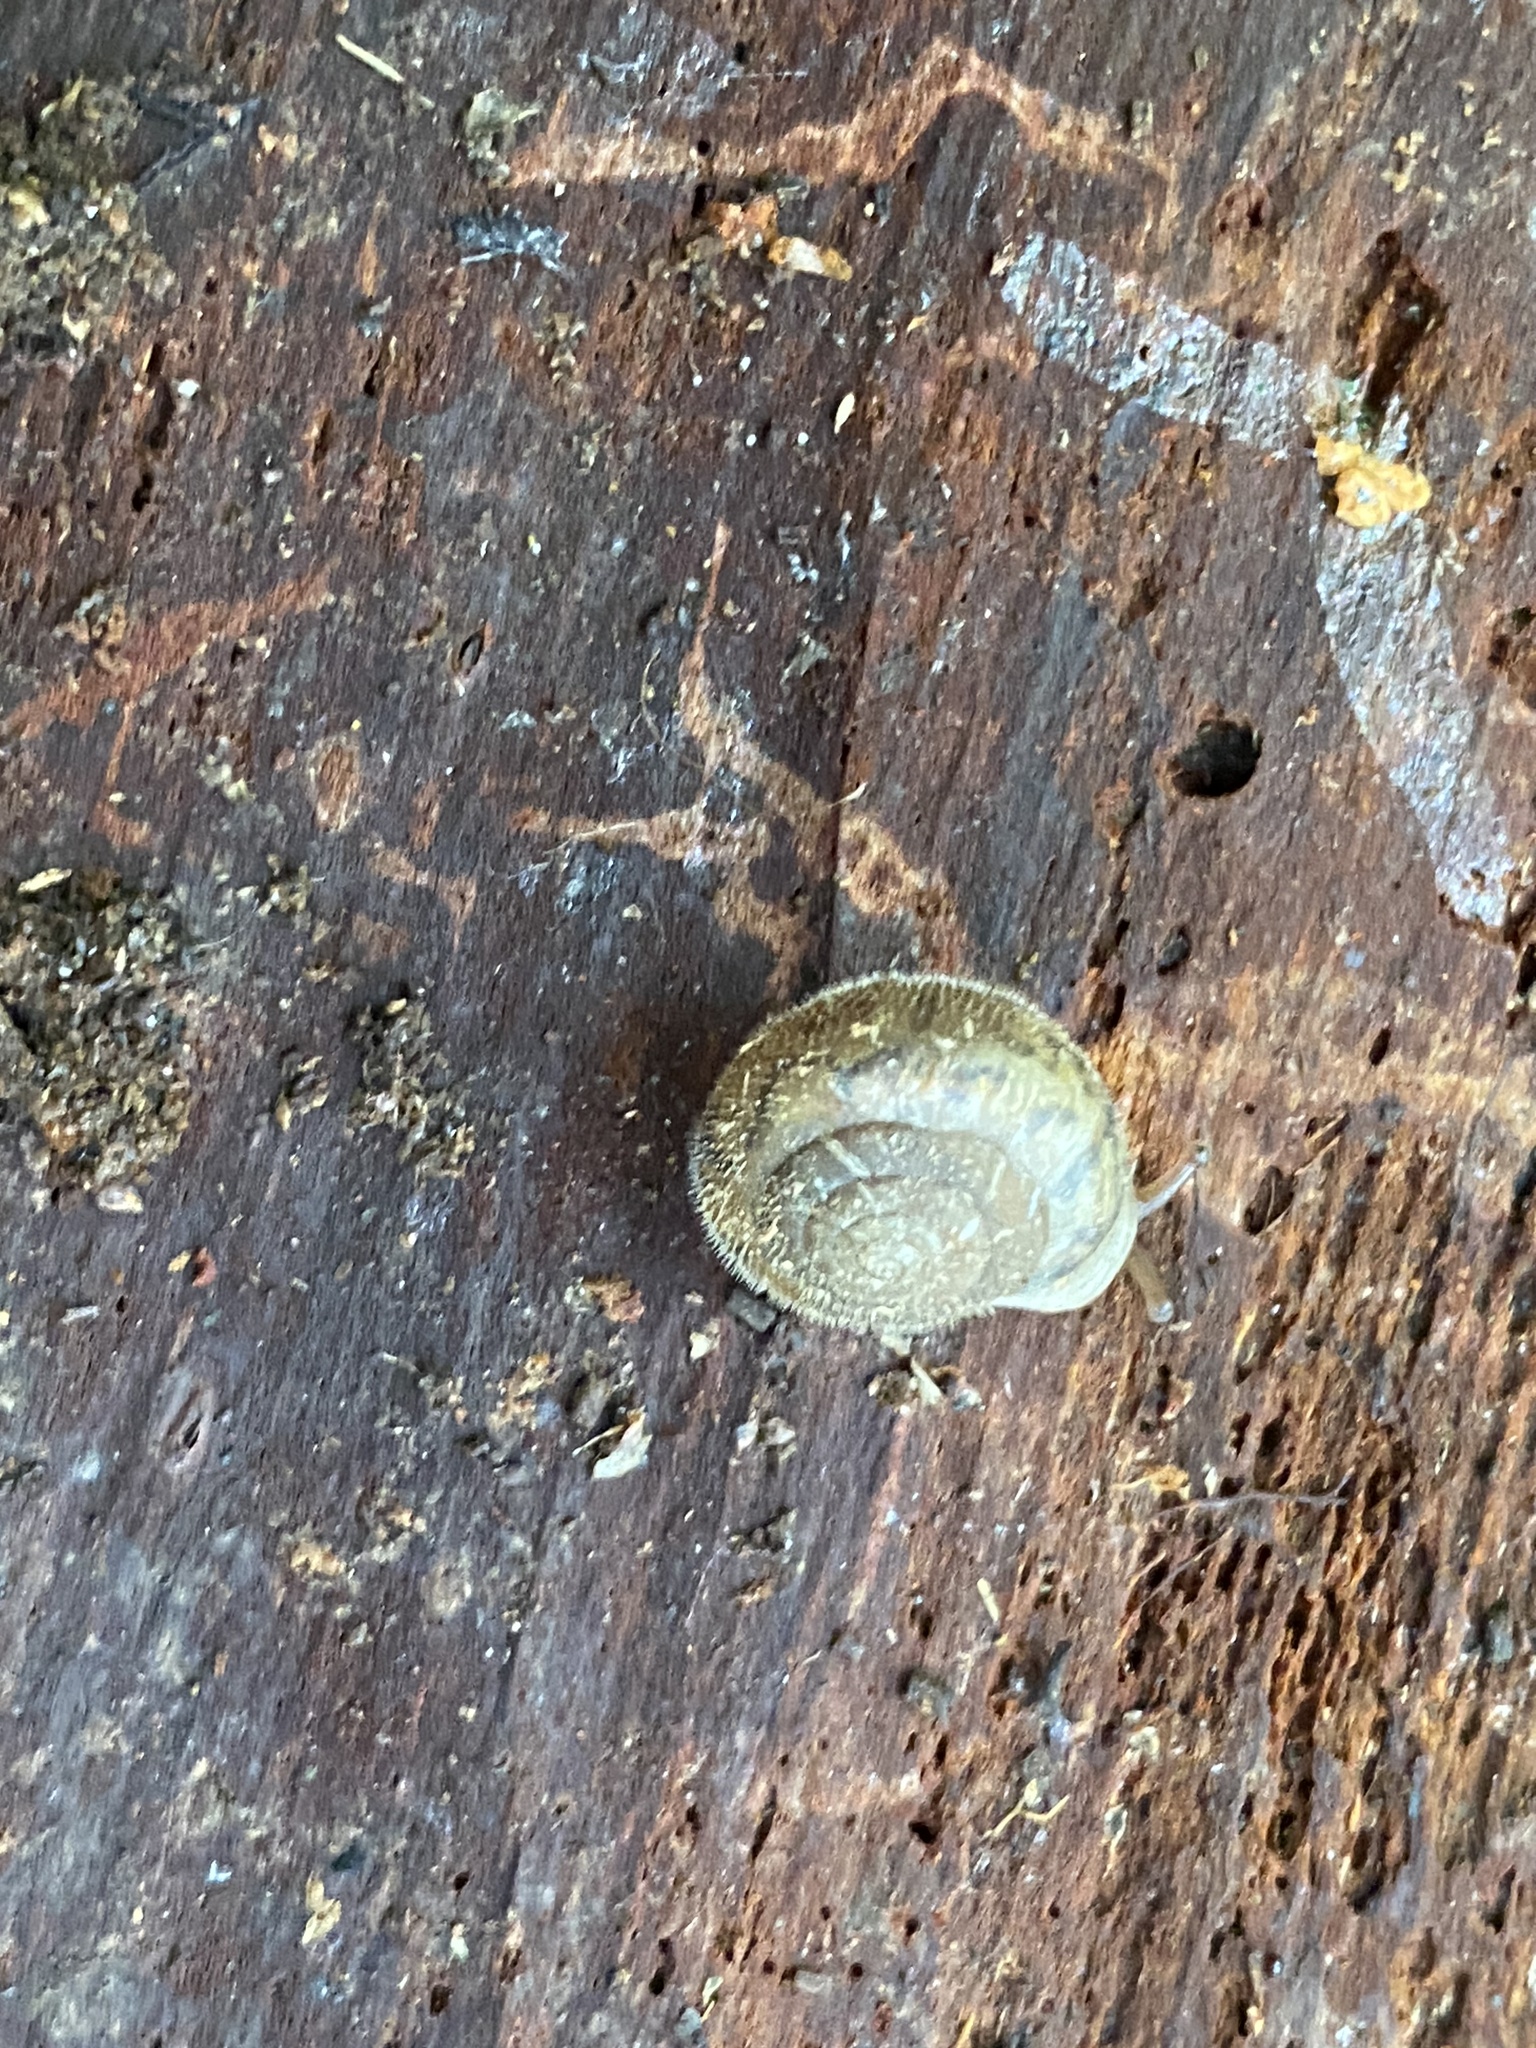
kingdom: Animalia
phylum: Mollusca
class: Gastropoda
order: Stylommatophora
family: Polygyridae
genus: Vespericola
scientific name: Vespericola columbianus
